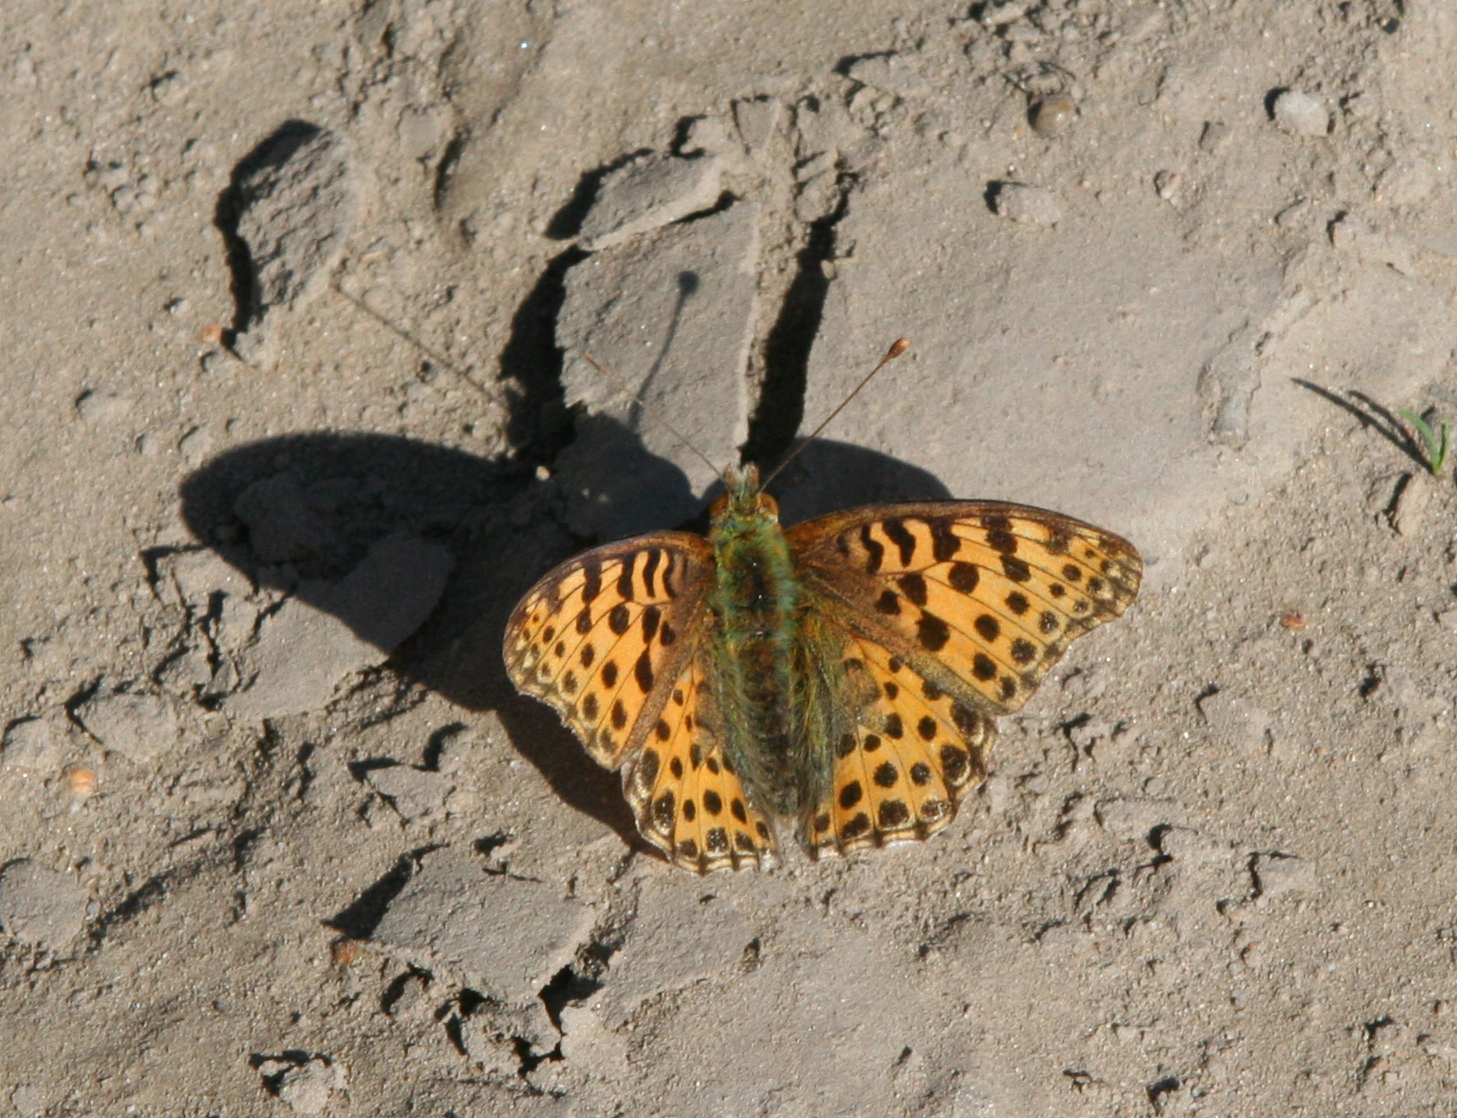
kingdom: Animalia
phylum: Arthropoda
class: Insecta
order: Lepidoptera
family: Nymphalidae
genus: Issoria
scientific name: Issoria lathonia
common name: Queen of spain fritillary
